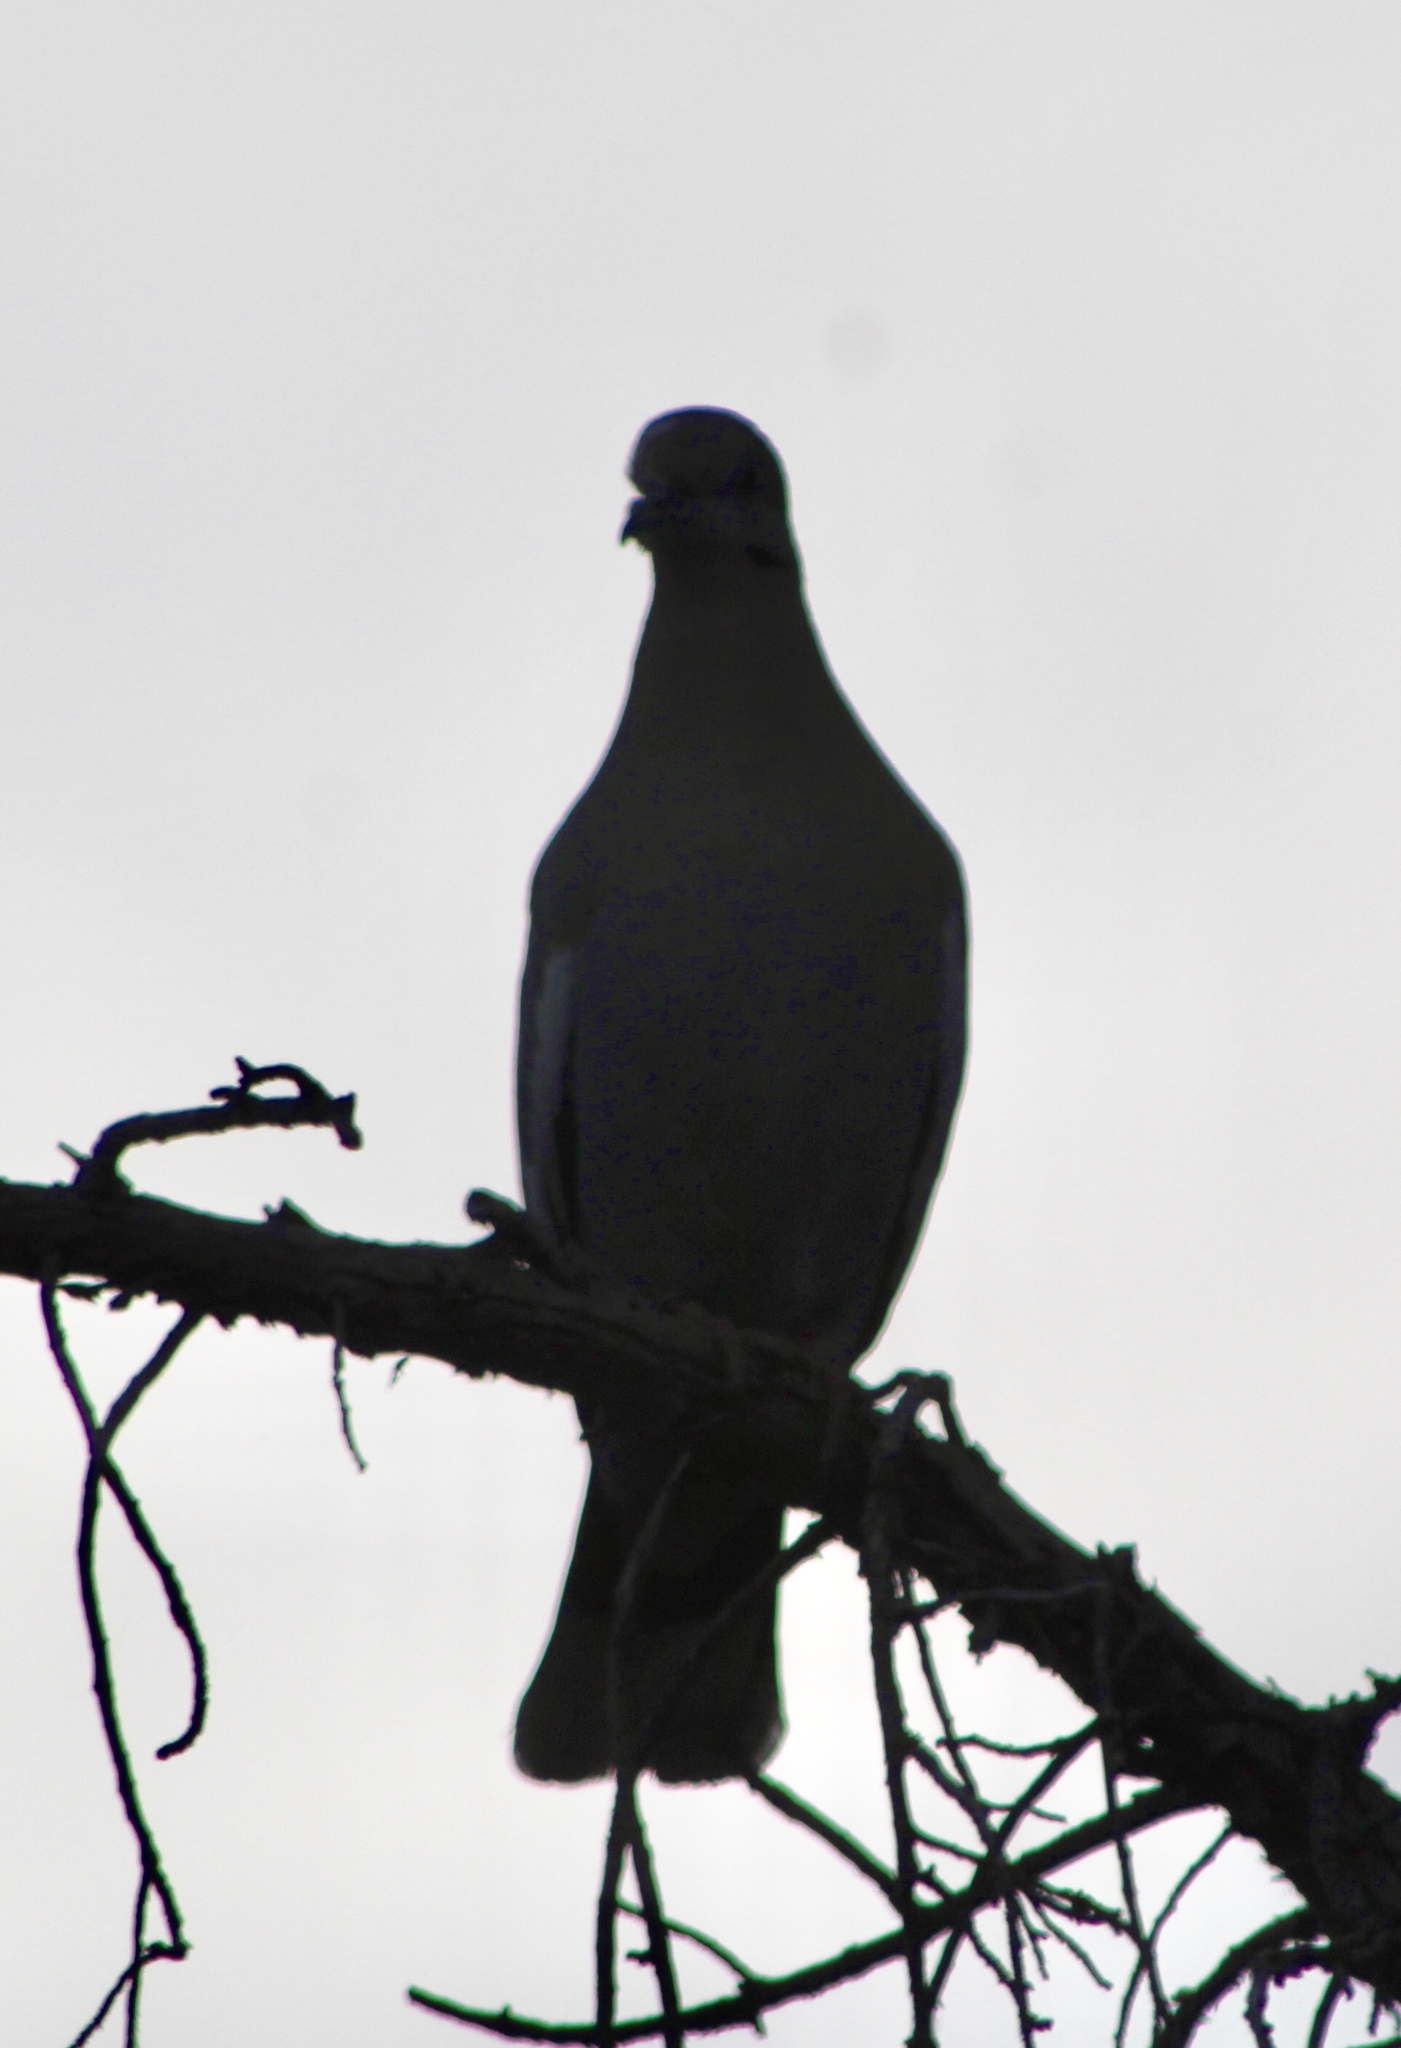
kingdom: Animalia
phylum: Chordata
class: Aves
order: Columbiformes
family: Columbidae
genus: Zenaida
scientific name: Zenaida asiatica
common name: White-winged dove
